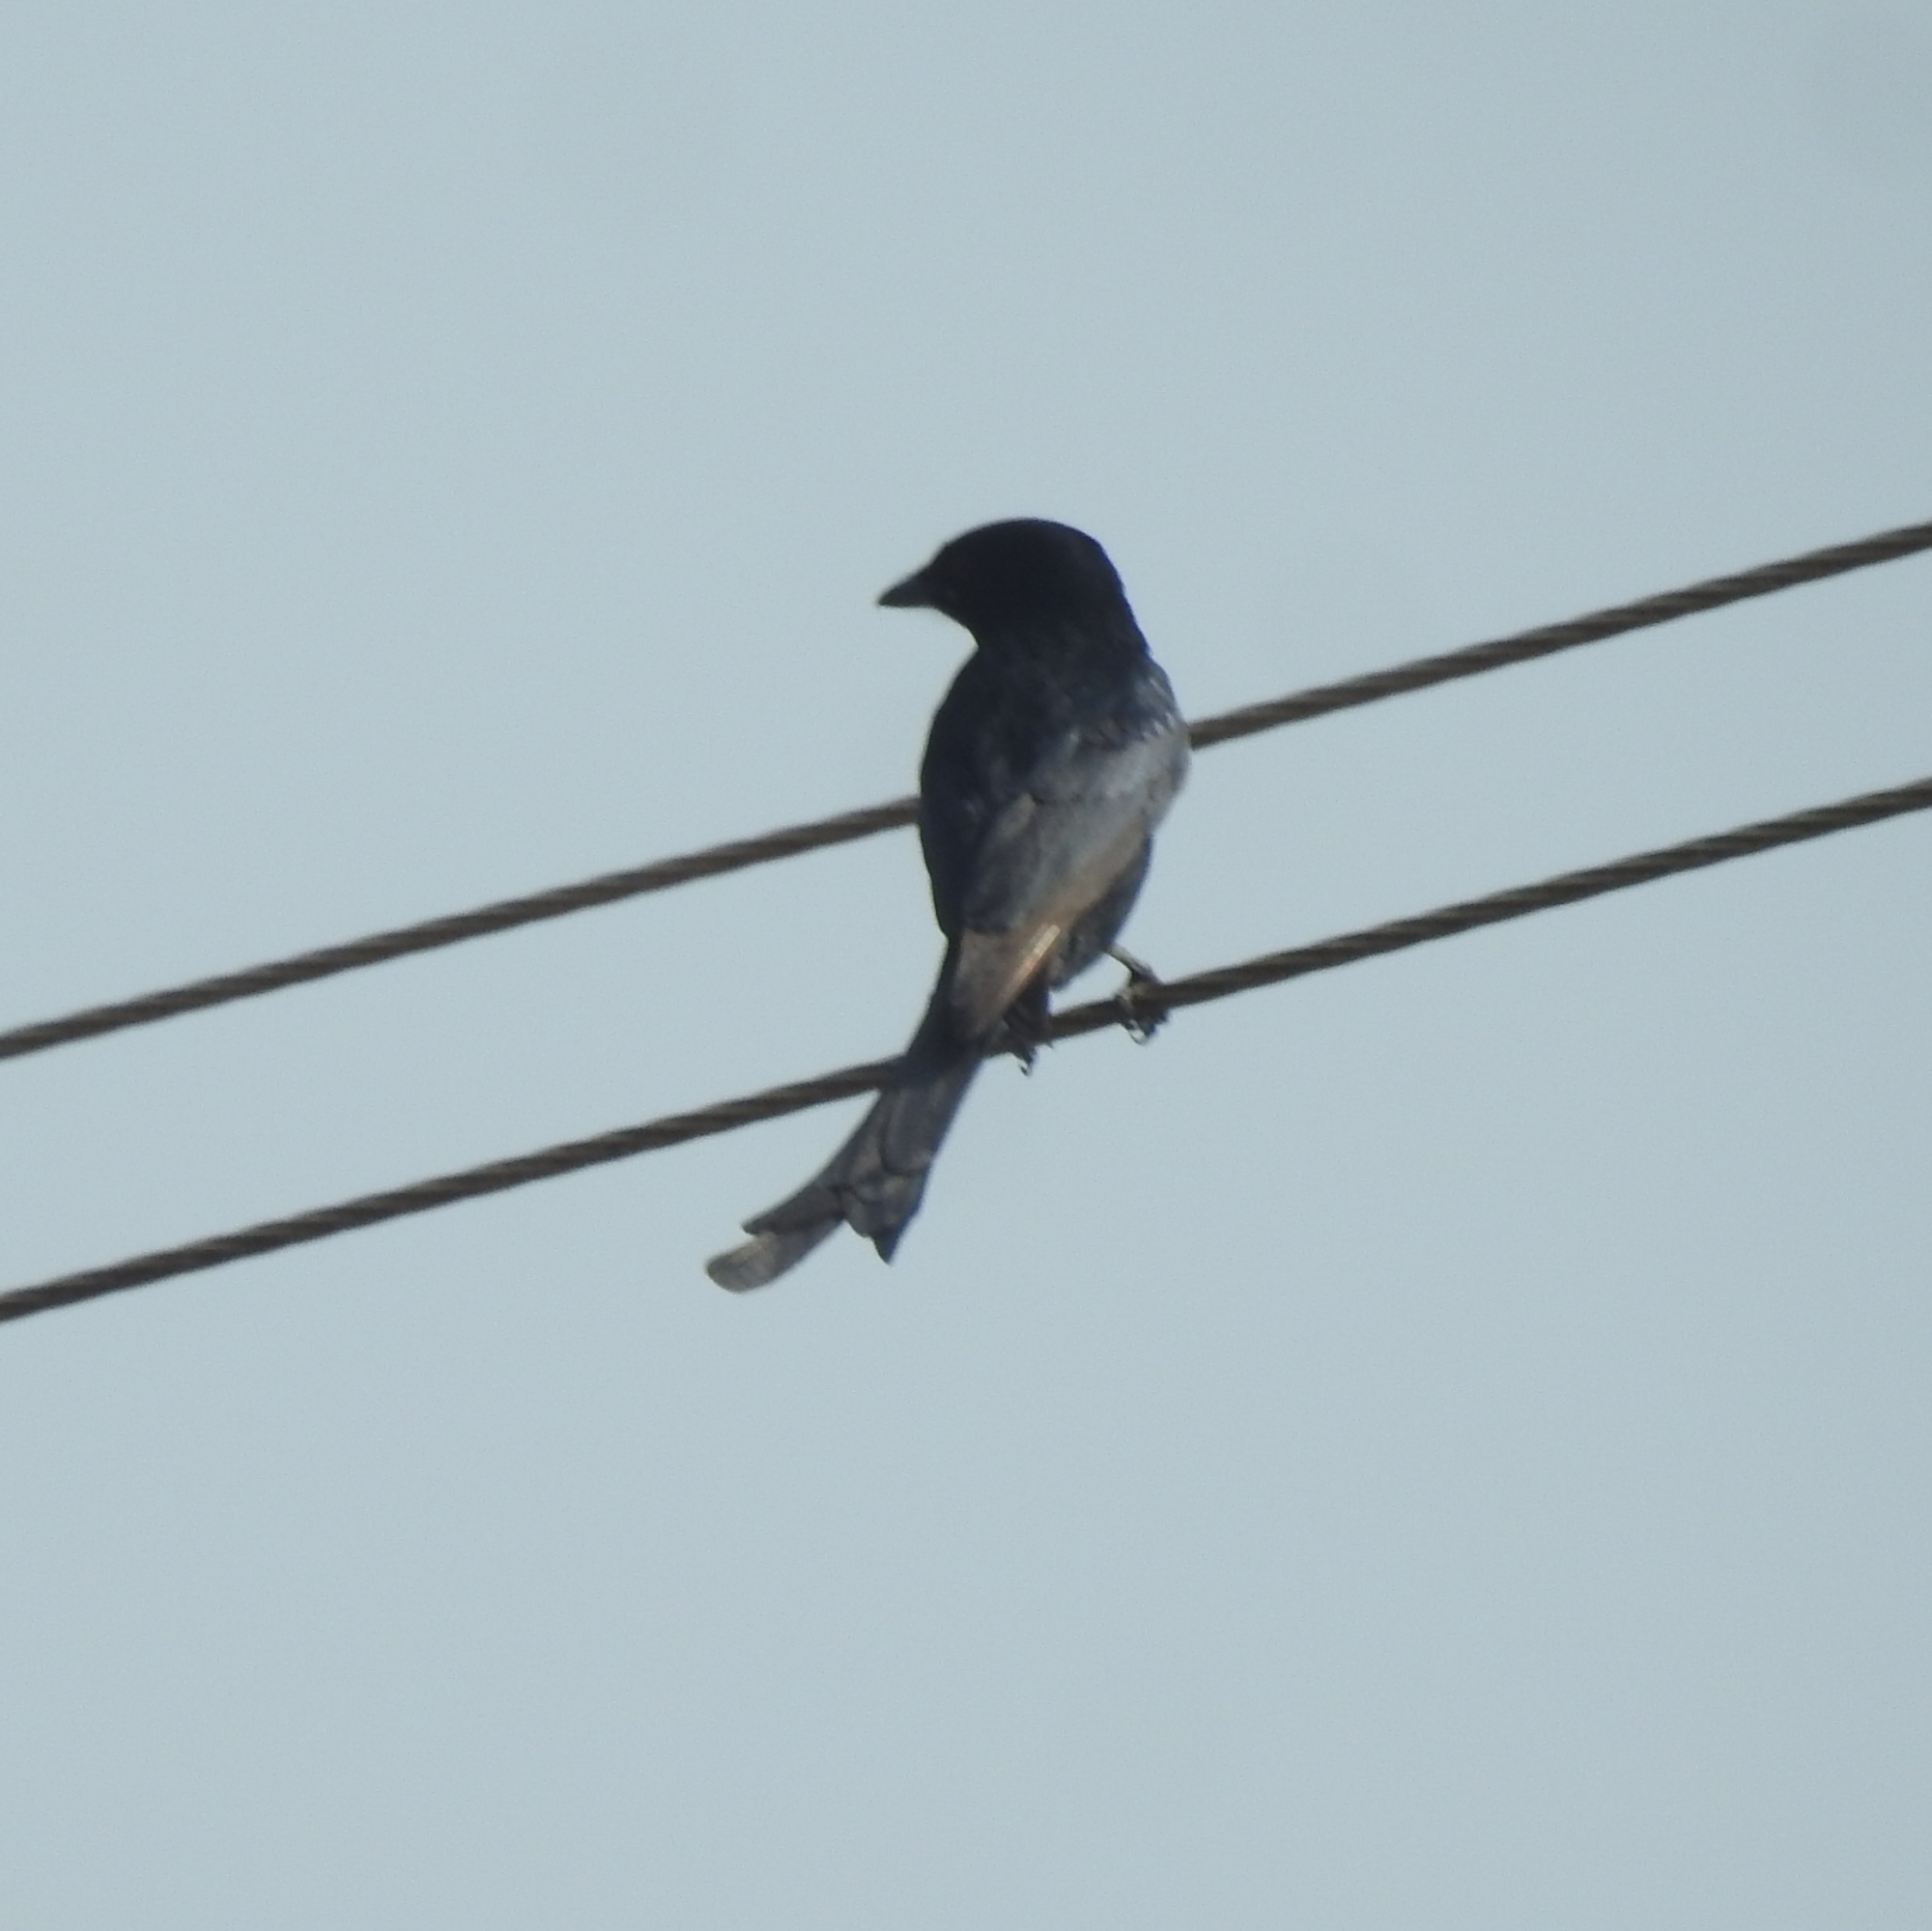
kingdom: Animalia
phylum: Chordata
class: Aves
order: Passeriformes
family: Dicruridae
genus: Dicrurus
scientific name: Dicrurus macrocercus
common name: Black drongo
